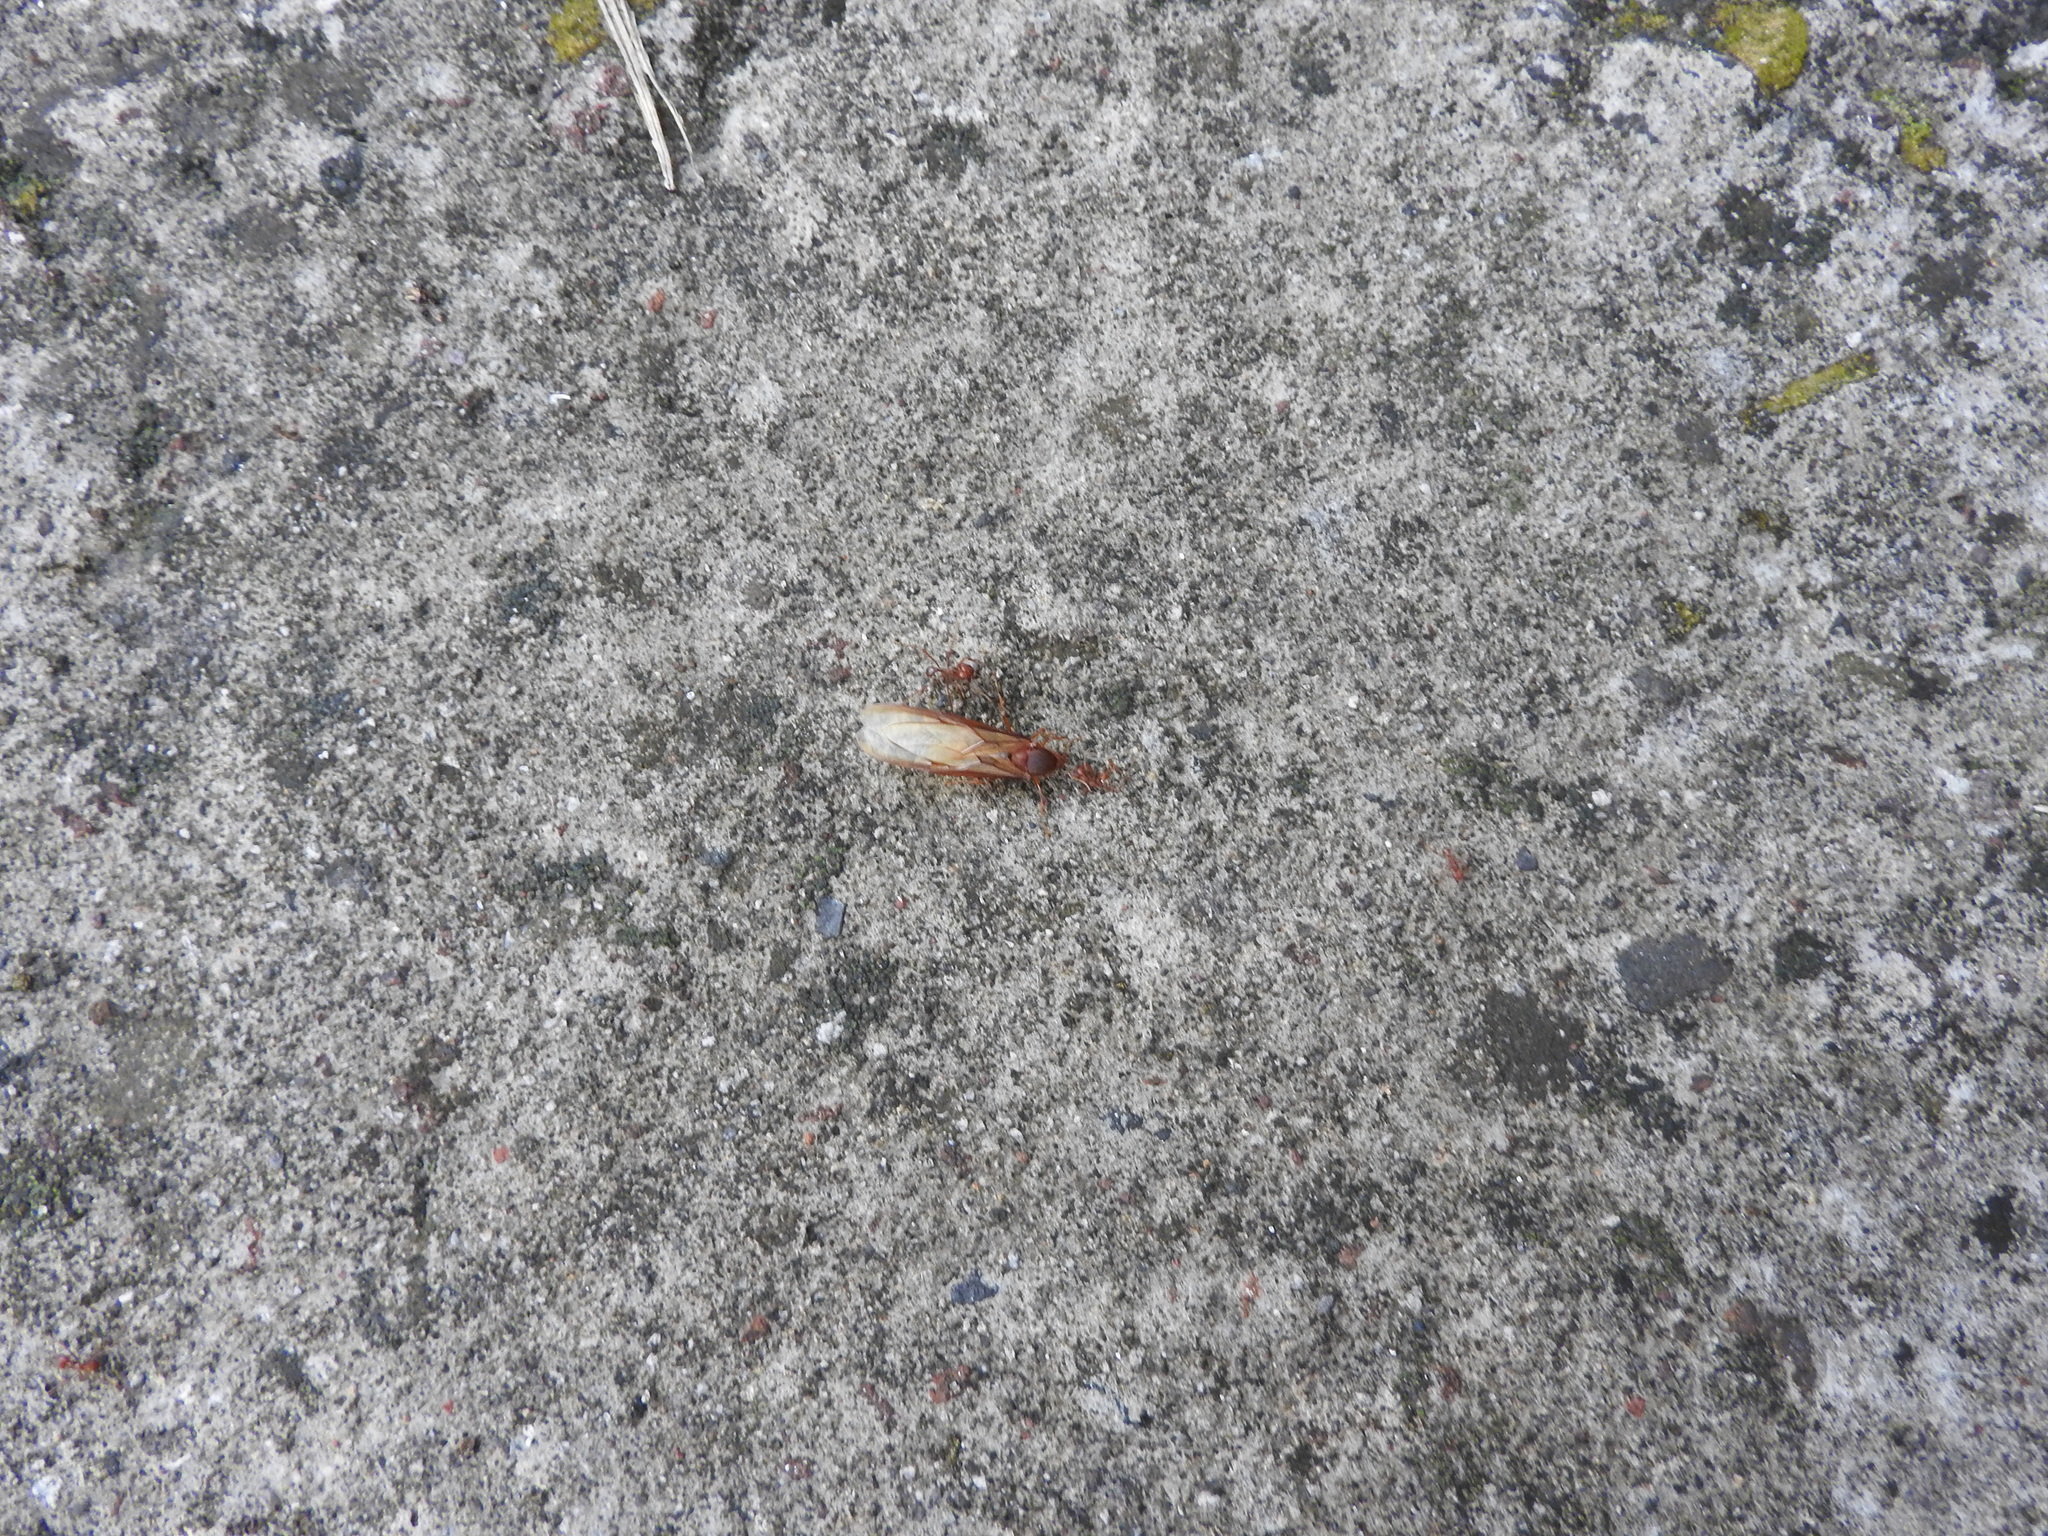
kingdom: Animalia
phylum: Arthropoda
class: Insecta
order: Hymenoptera
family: Formicidae
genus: Atta
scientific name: Atta mexicana
